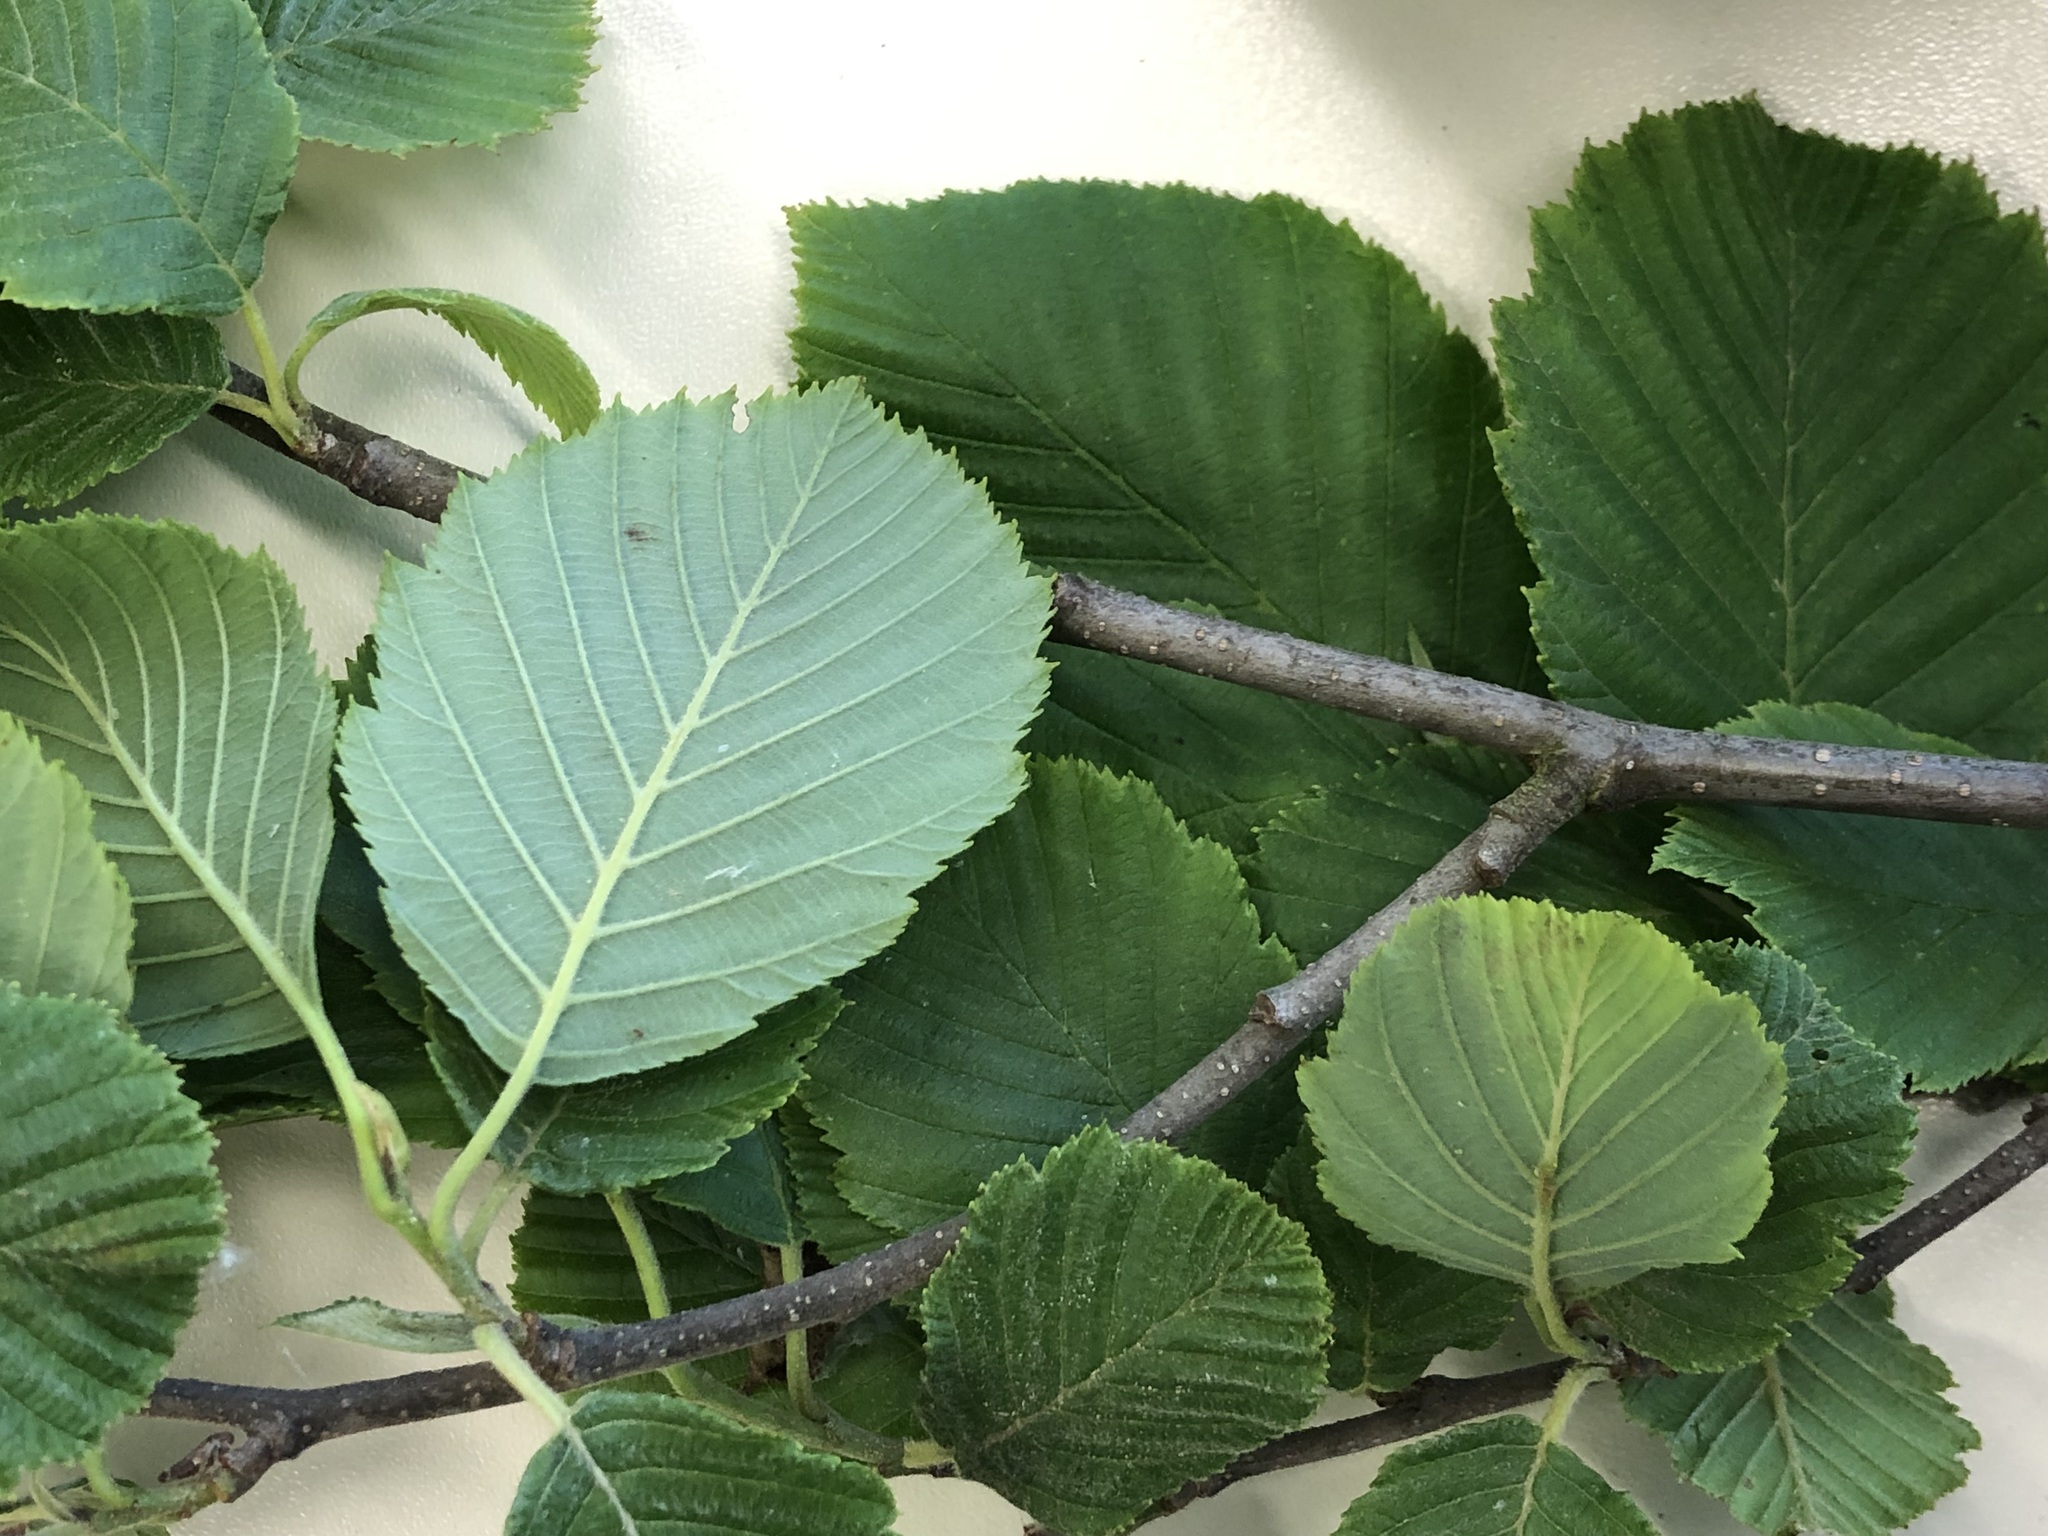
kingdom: Plantae
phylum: Tracheophyta
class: Magnoliopsida
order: Fagales
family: Betulaceae
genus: Alnus
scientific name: Alnus incana
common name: Grey alder
